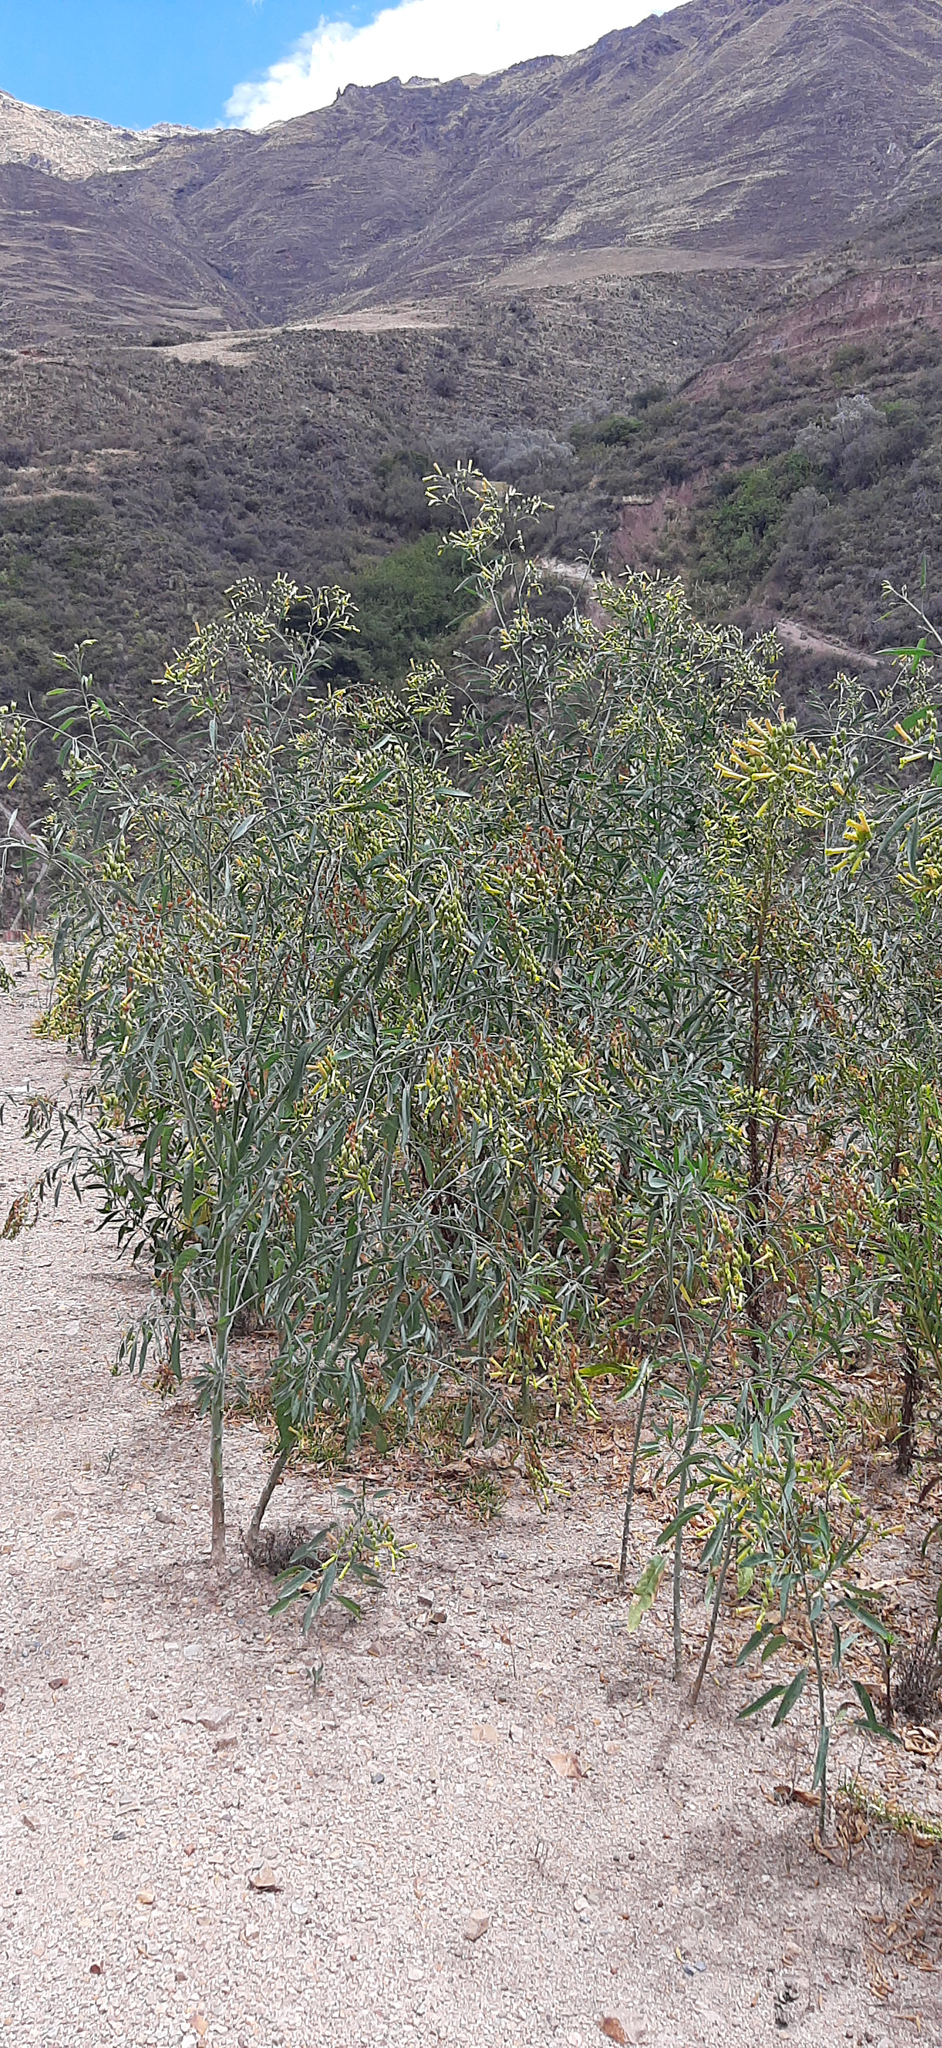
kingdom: Plantae
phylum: Tracheophyta
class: Magnoliopsida
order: Solanales
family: Solanaceae
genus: Nicotiana
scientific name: Nicotiana glauca
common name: Tree tobacco
